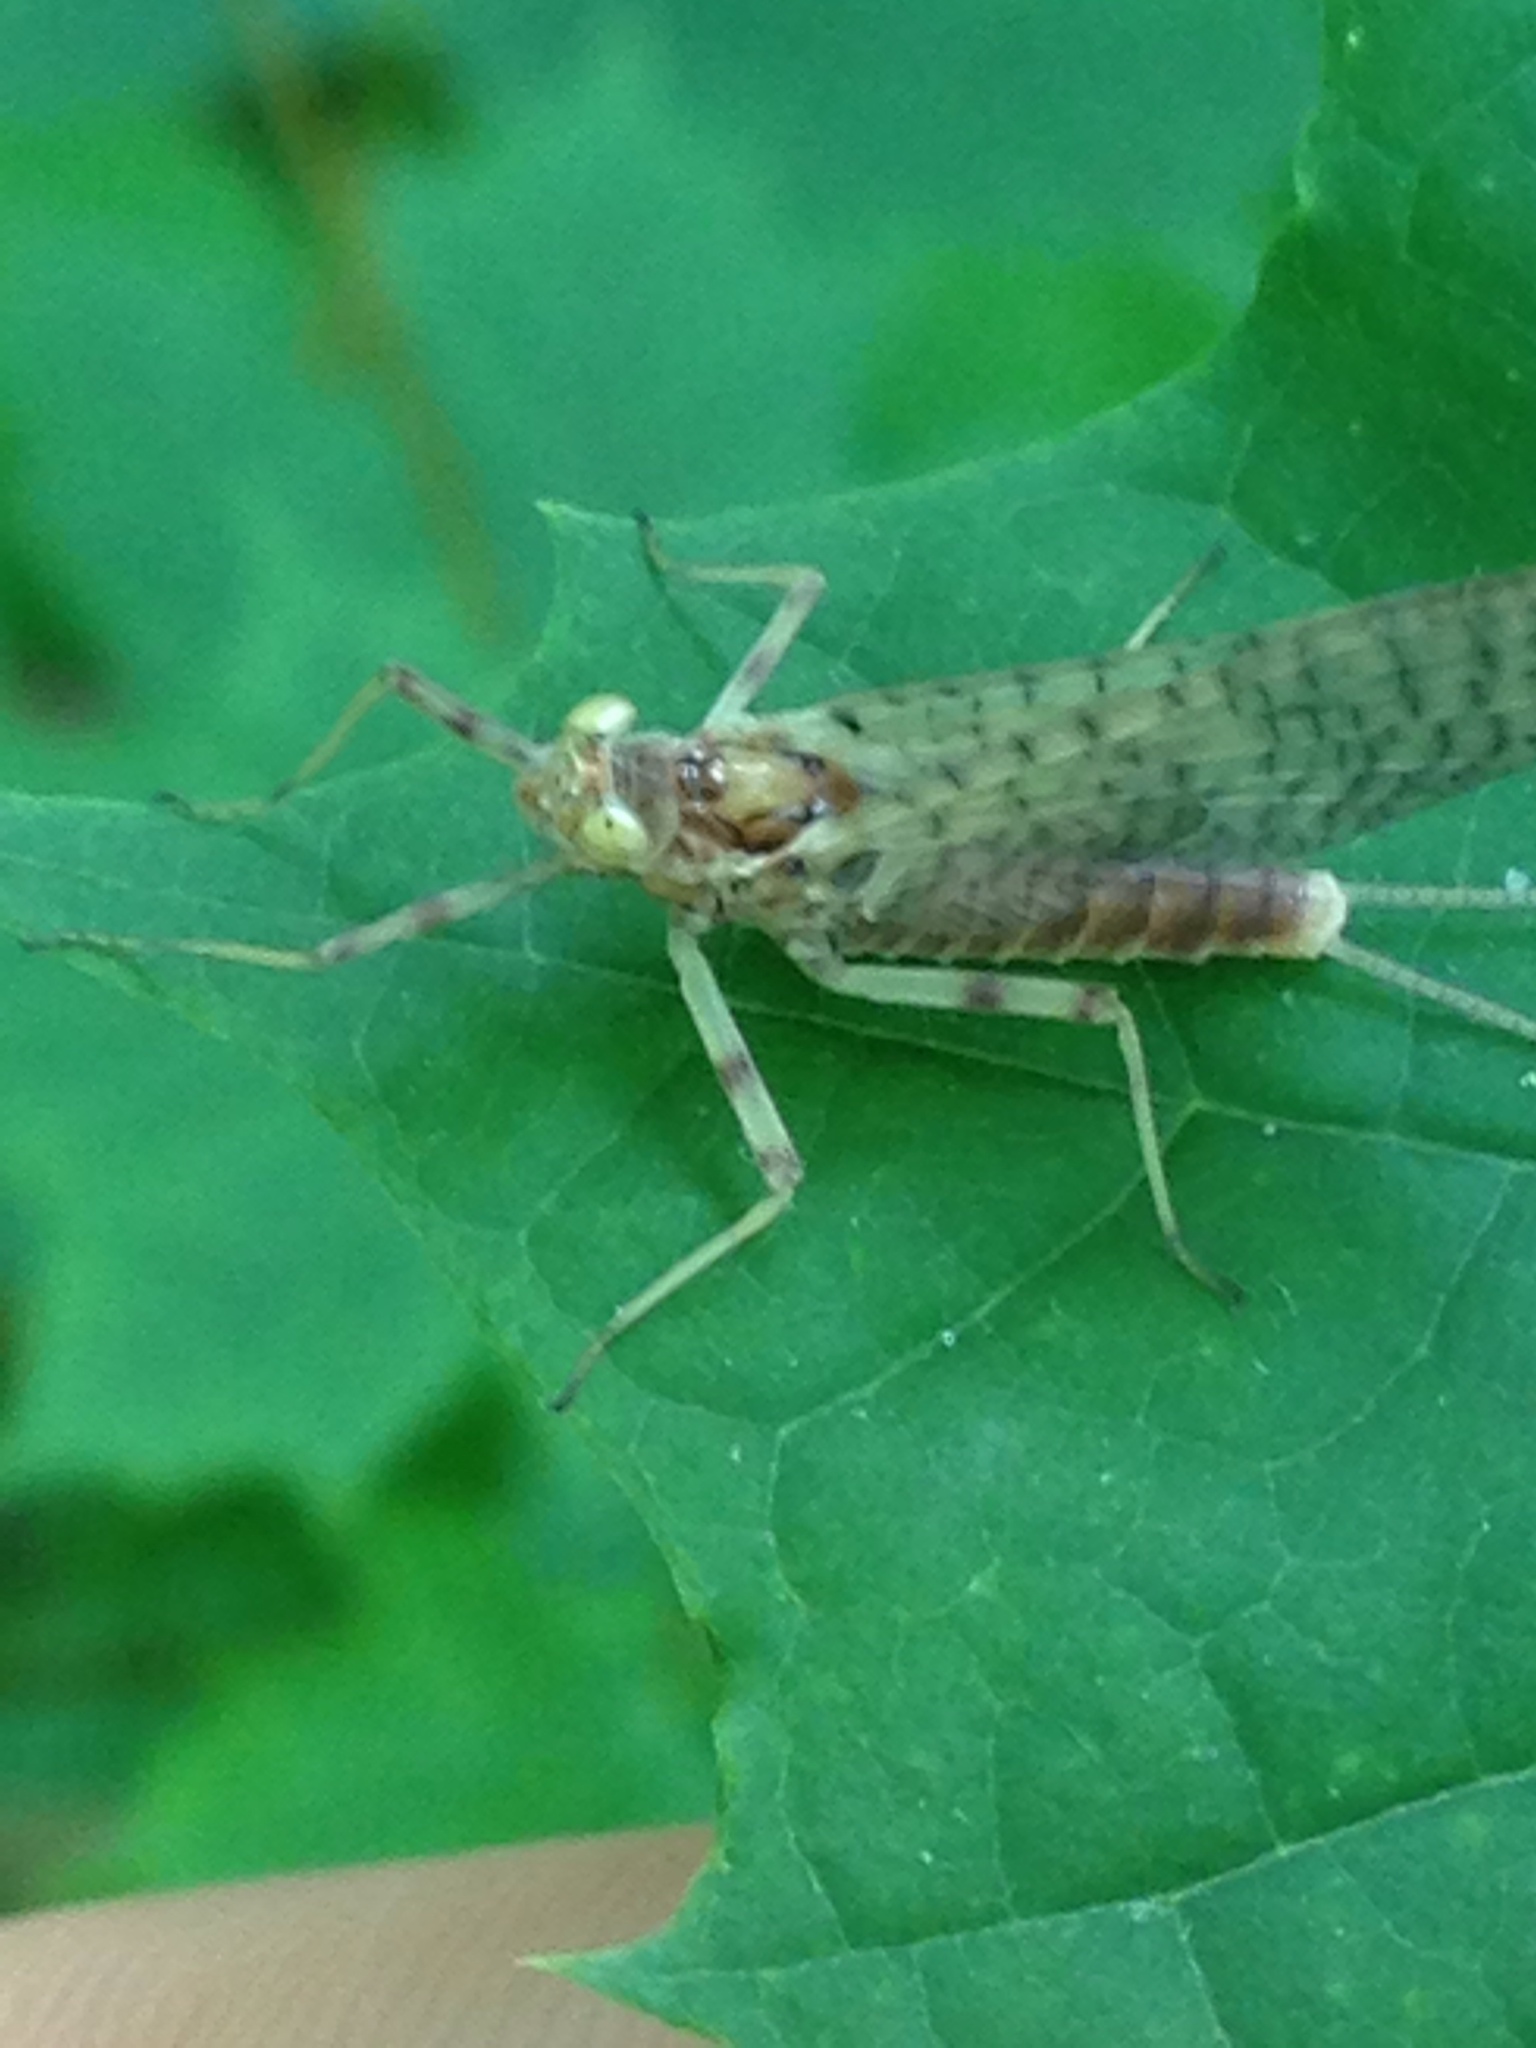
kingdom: Animalia
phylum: Arthropoda
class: Insecta
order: Ephemeroptera
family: Heptageniidae
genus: Maccaffertium
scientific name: Maccaffertium vicarium
